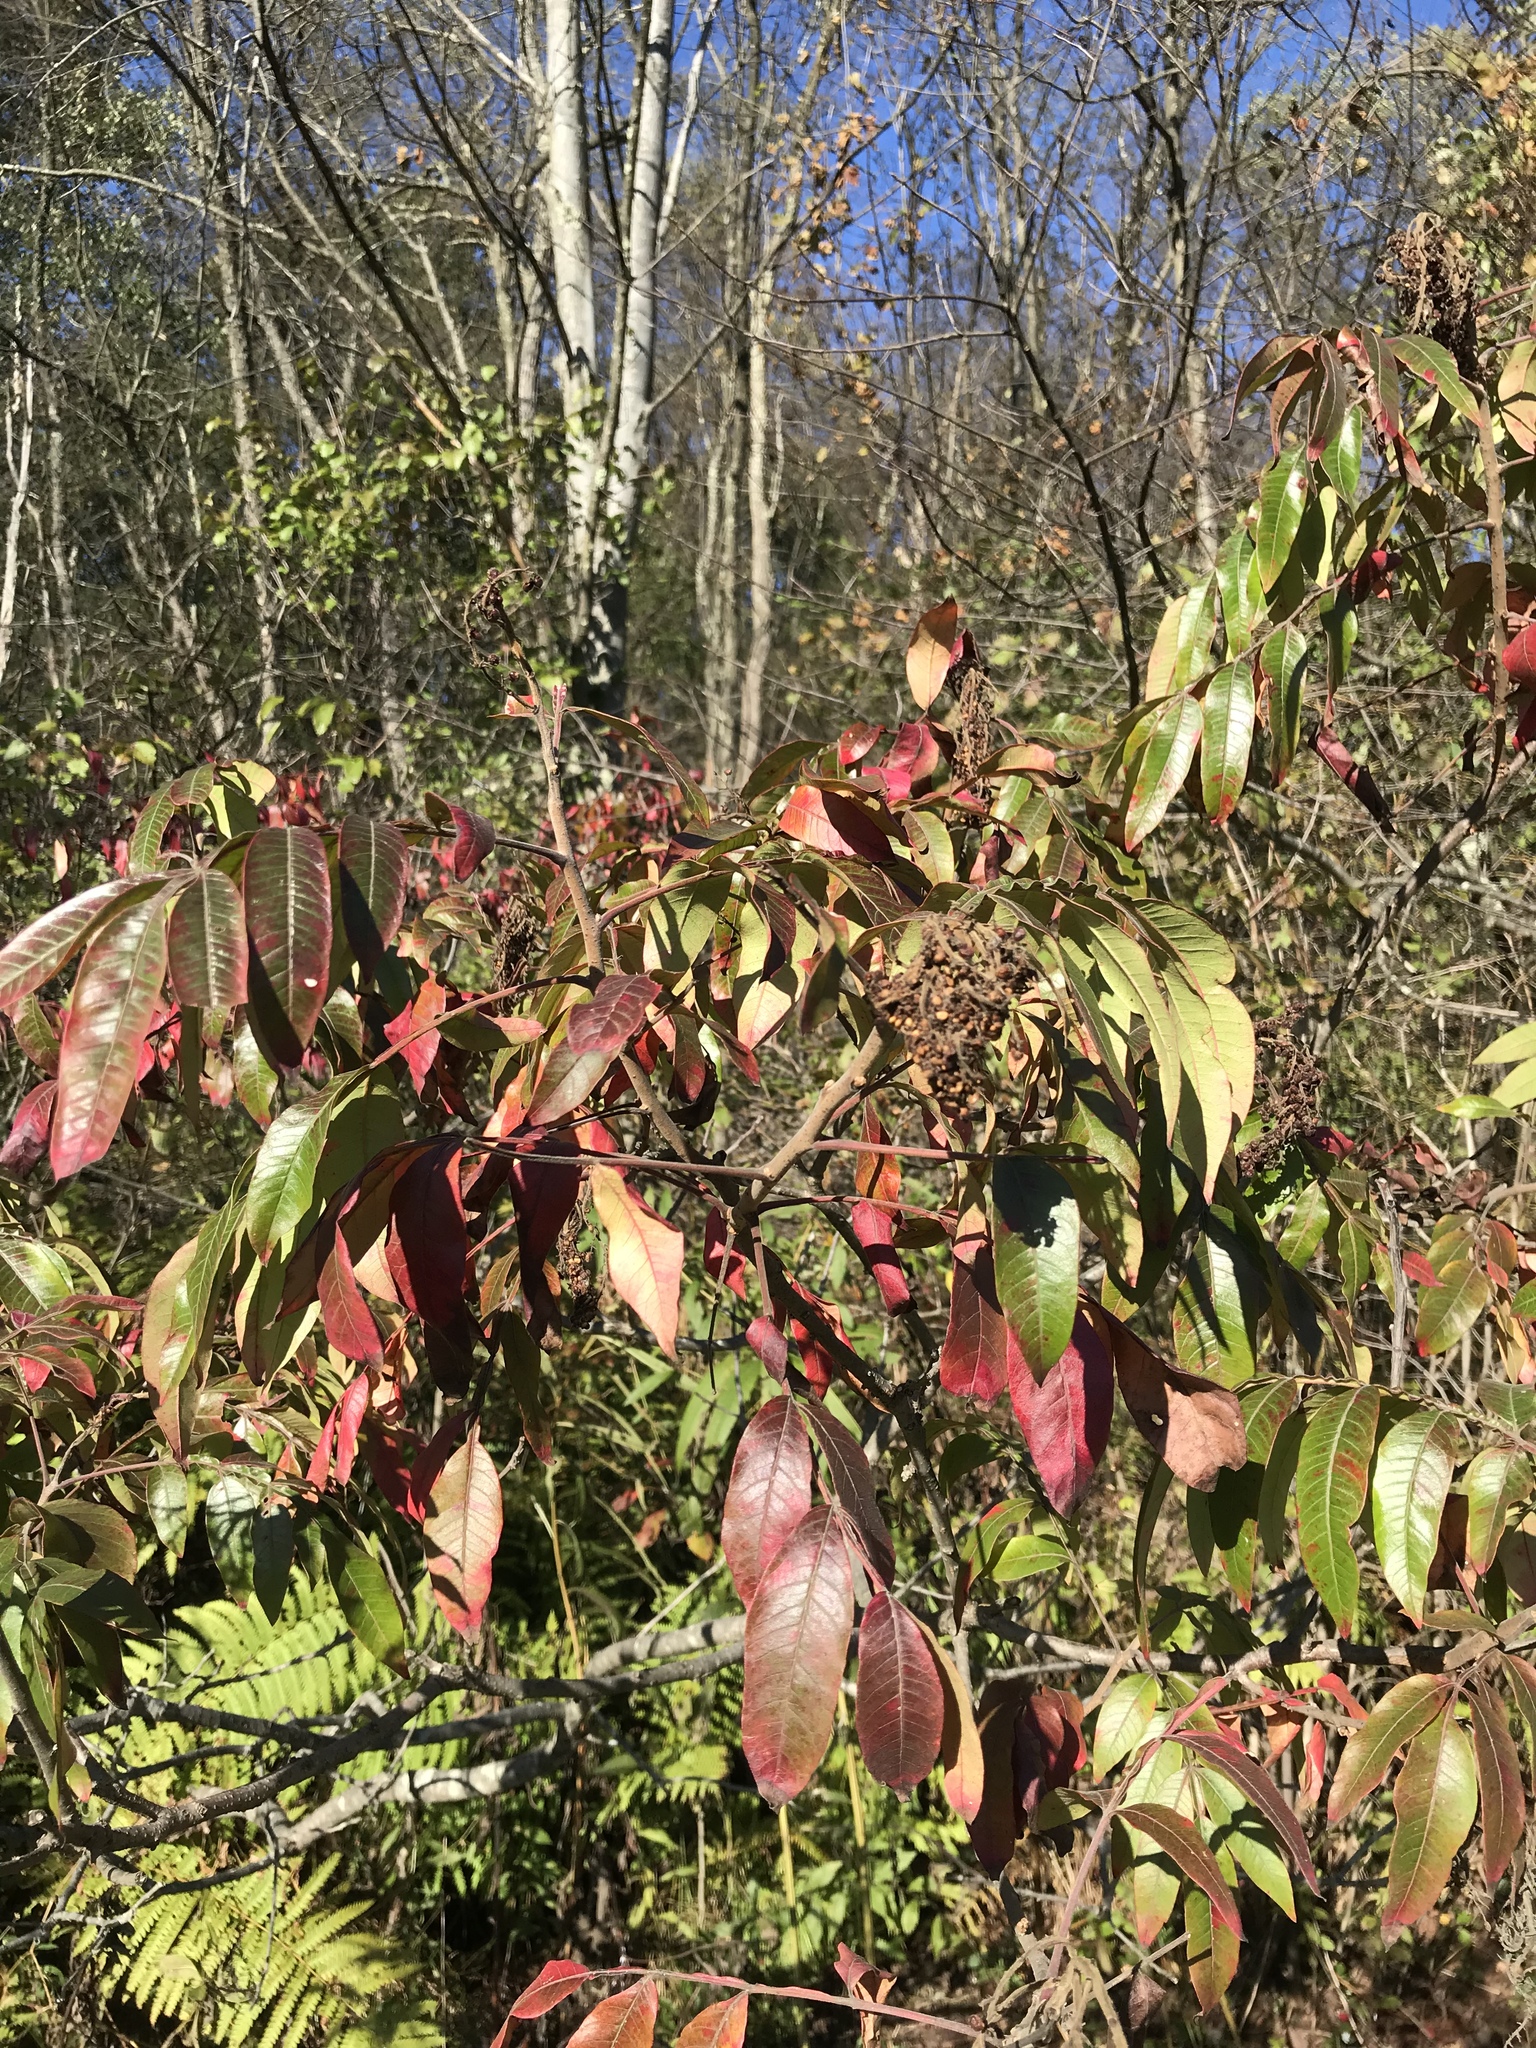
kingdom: Plantae
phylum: Tracheophyta
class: Magnoliopsida
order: Sapindales
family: Anacardiaceae
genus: Rhus
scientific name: Rhus copallina
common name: Shining sumac
